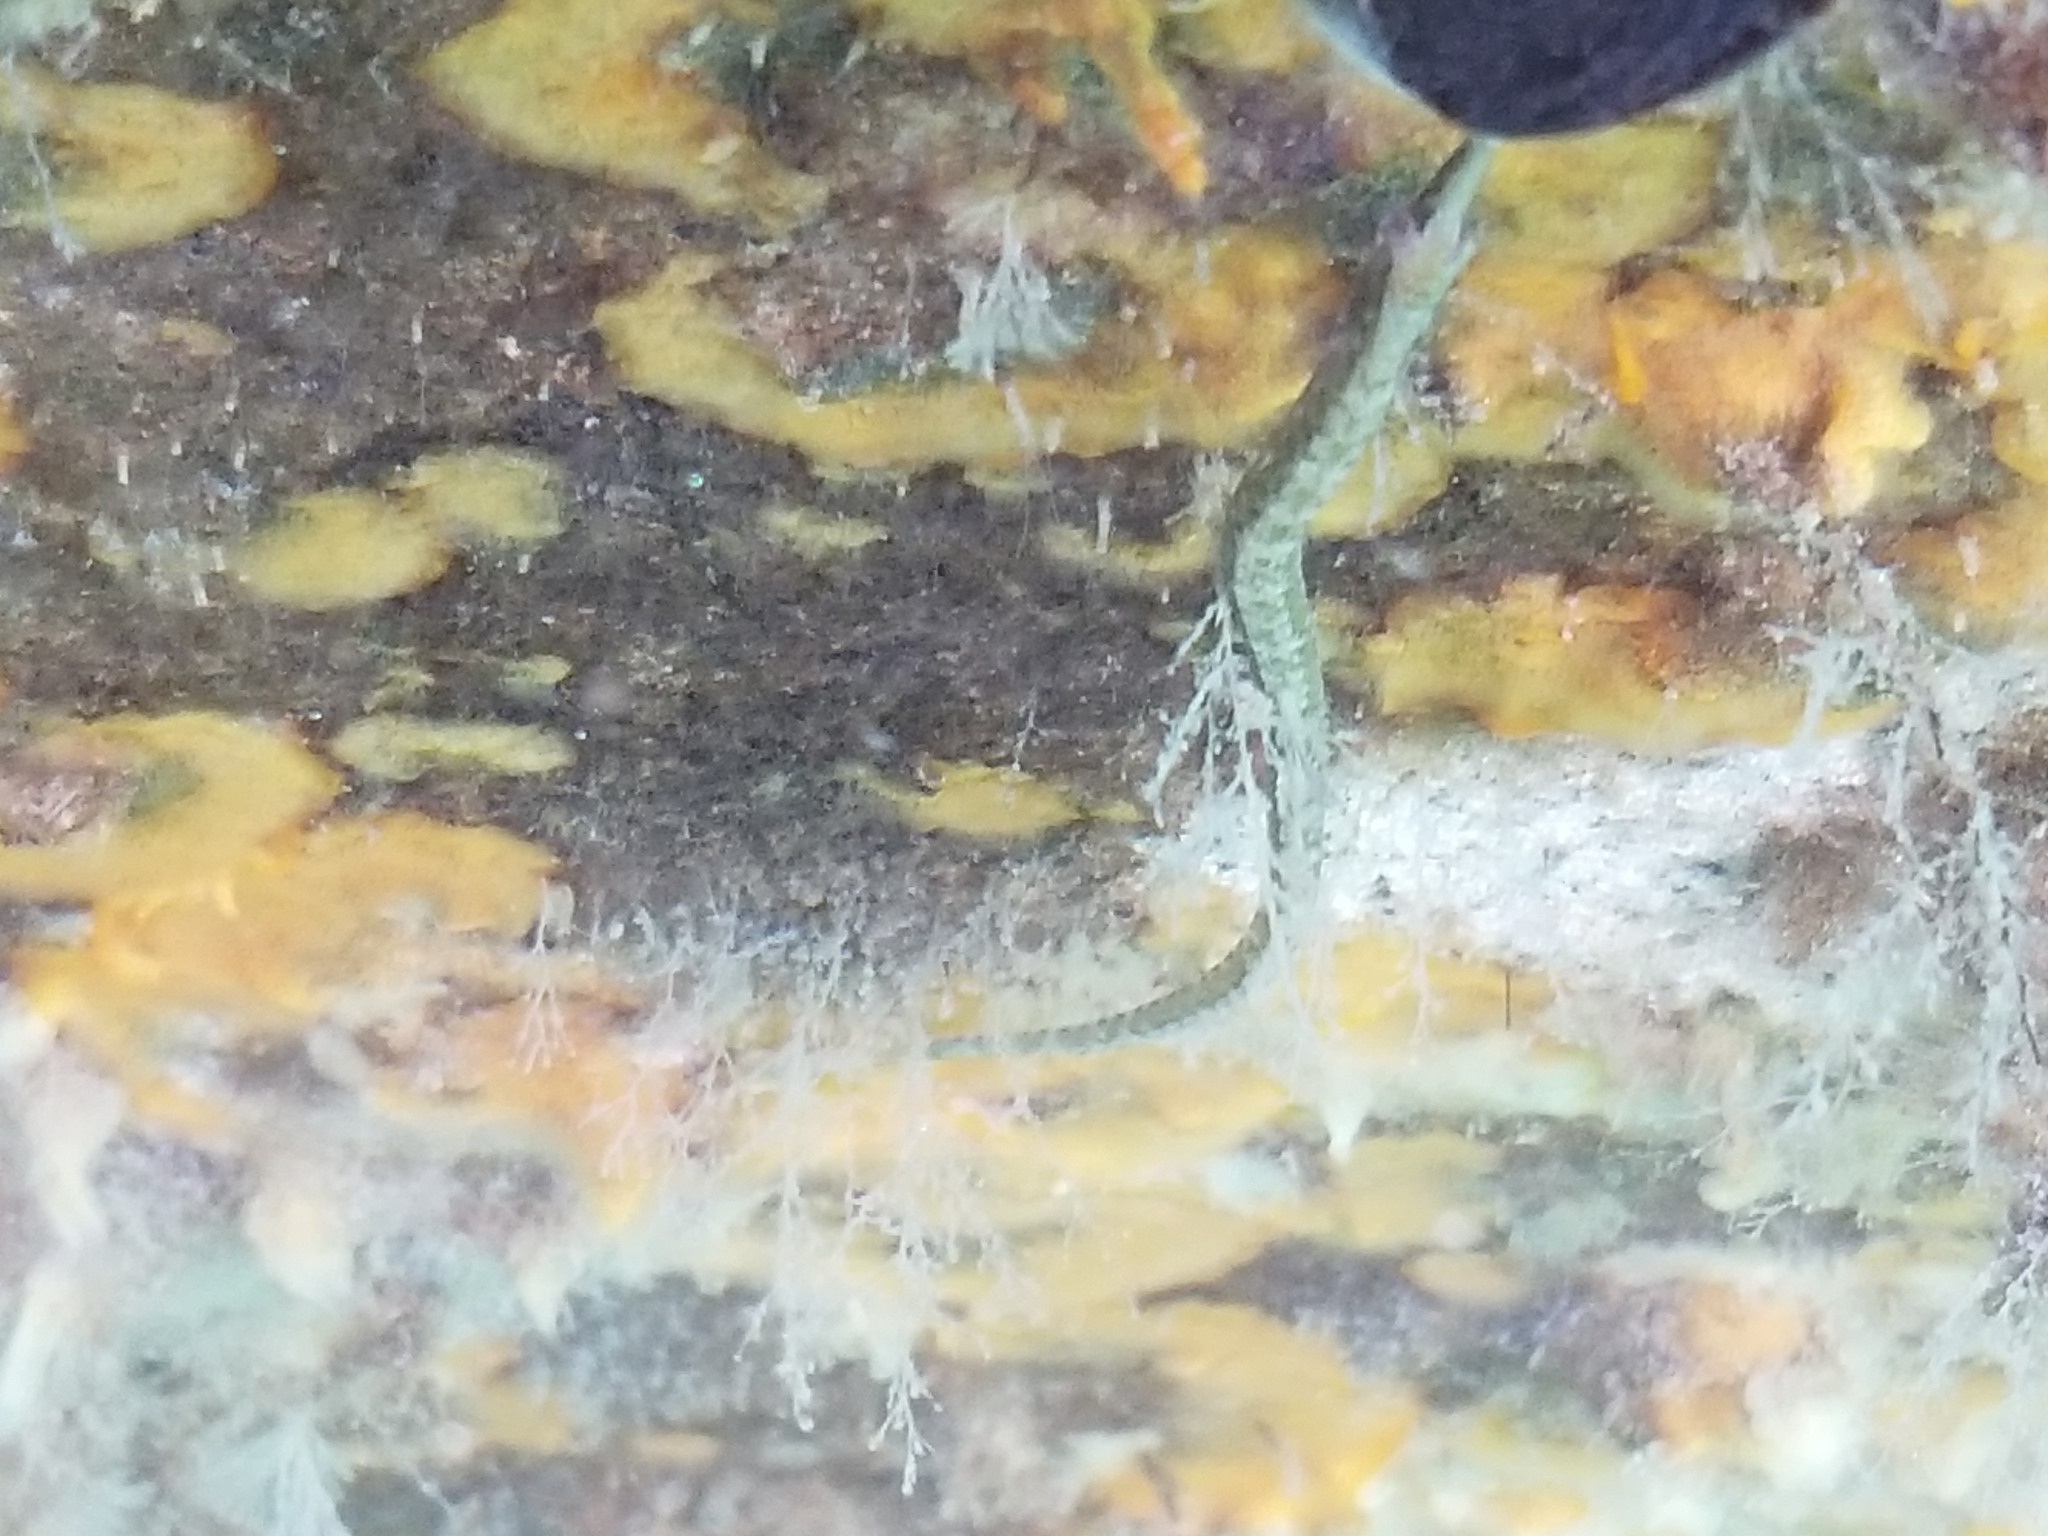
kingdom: Animalia
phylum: Chordata
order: Syngnathiformes
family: Syngnathidae
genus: Syngnathus
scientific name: Syngnathus californiensis
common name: Great pipefish
